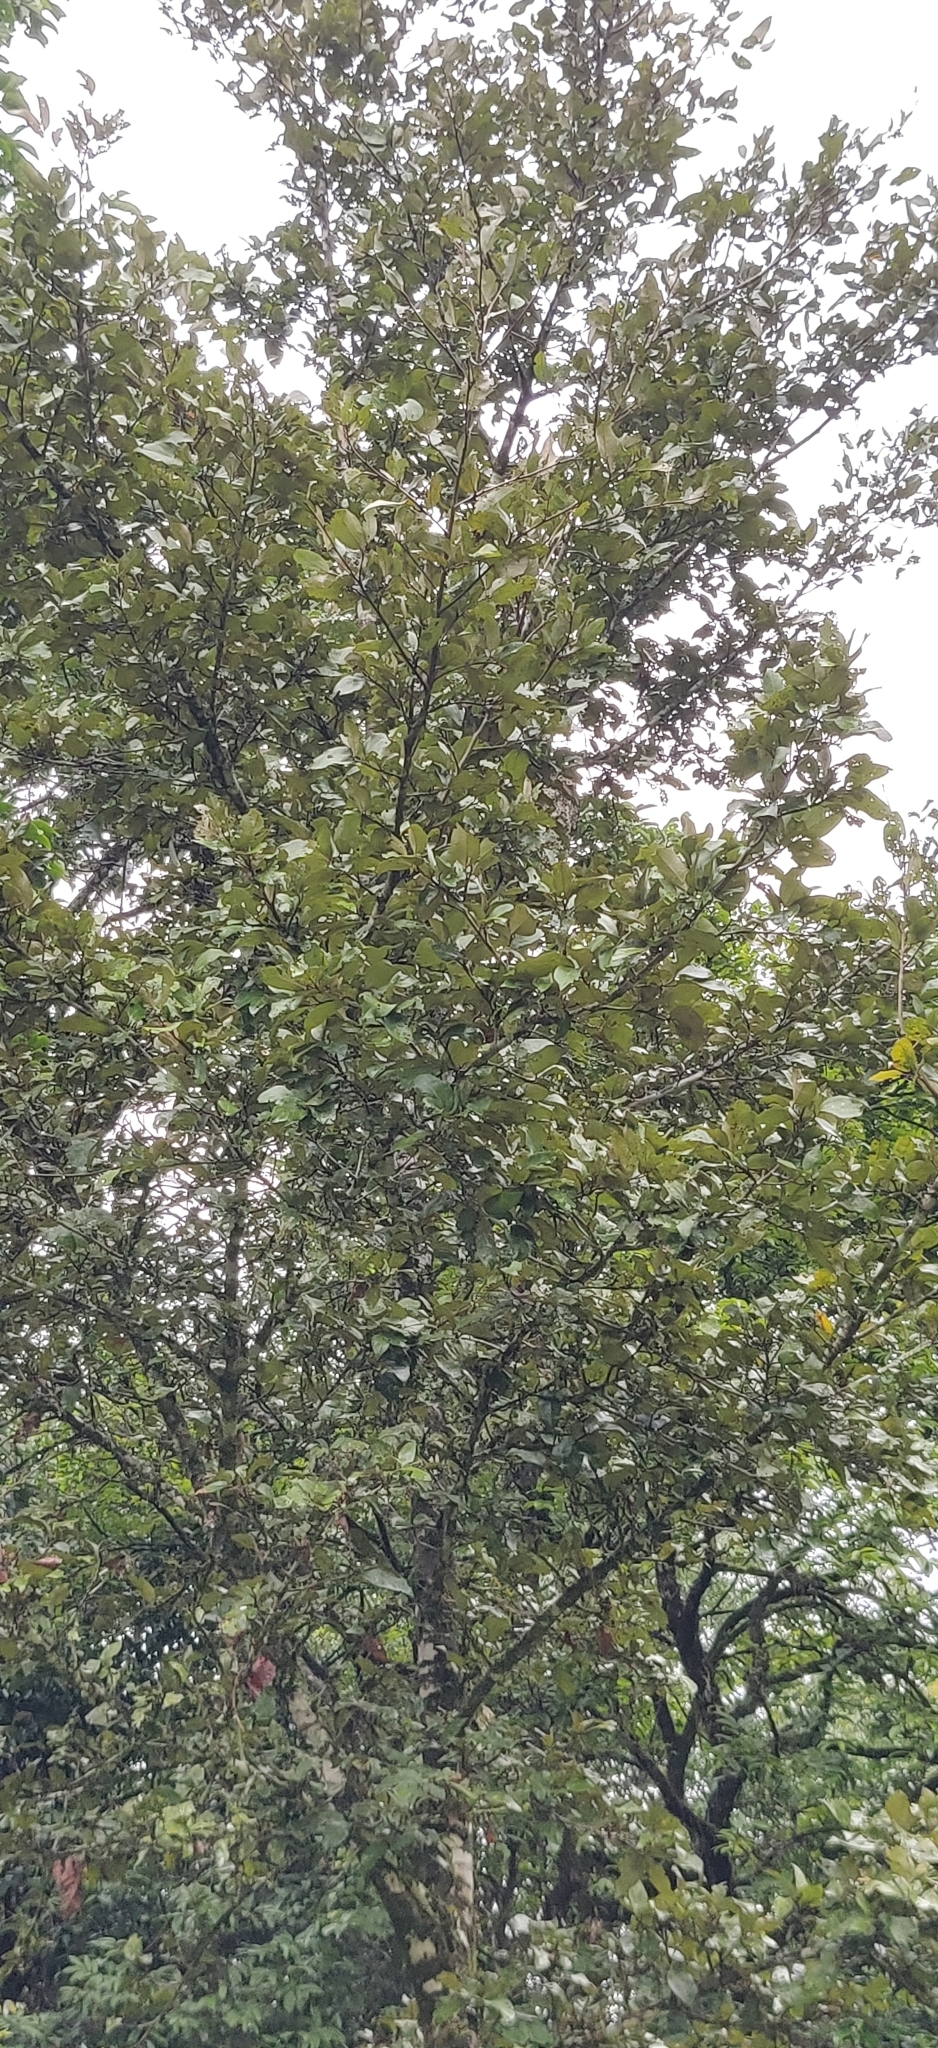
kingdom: Plantae
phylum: Tracheophyta
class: Magnoliopsida
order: Malvales
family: Malvaceae
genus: Heritiera
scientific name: Heritiera papilio
